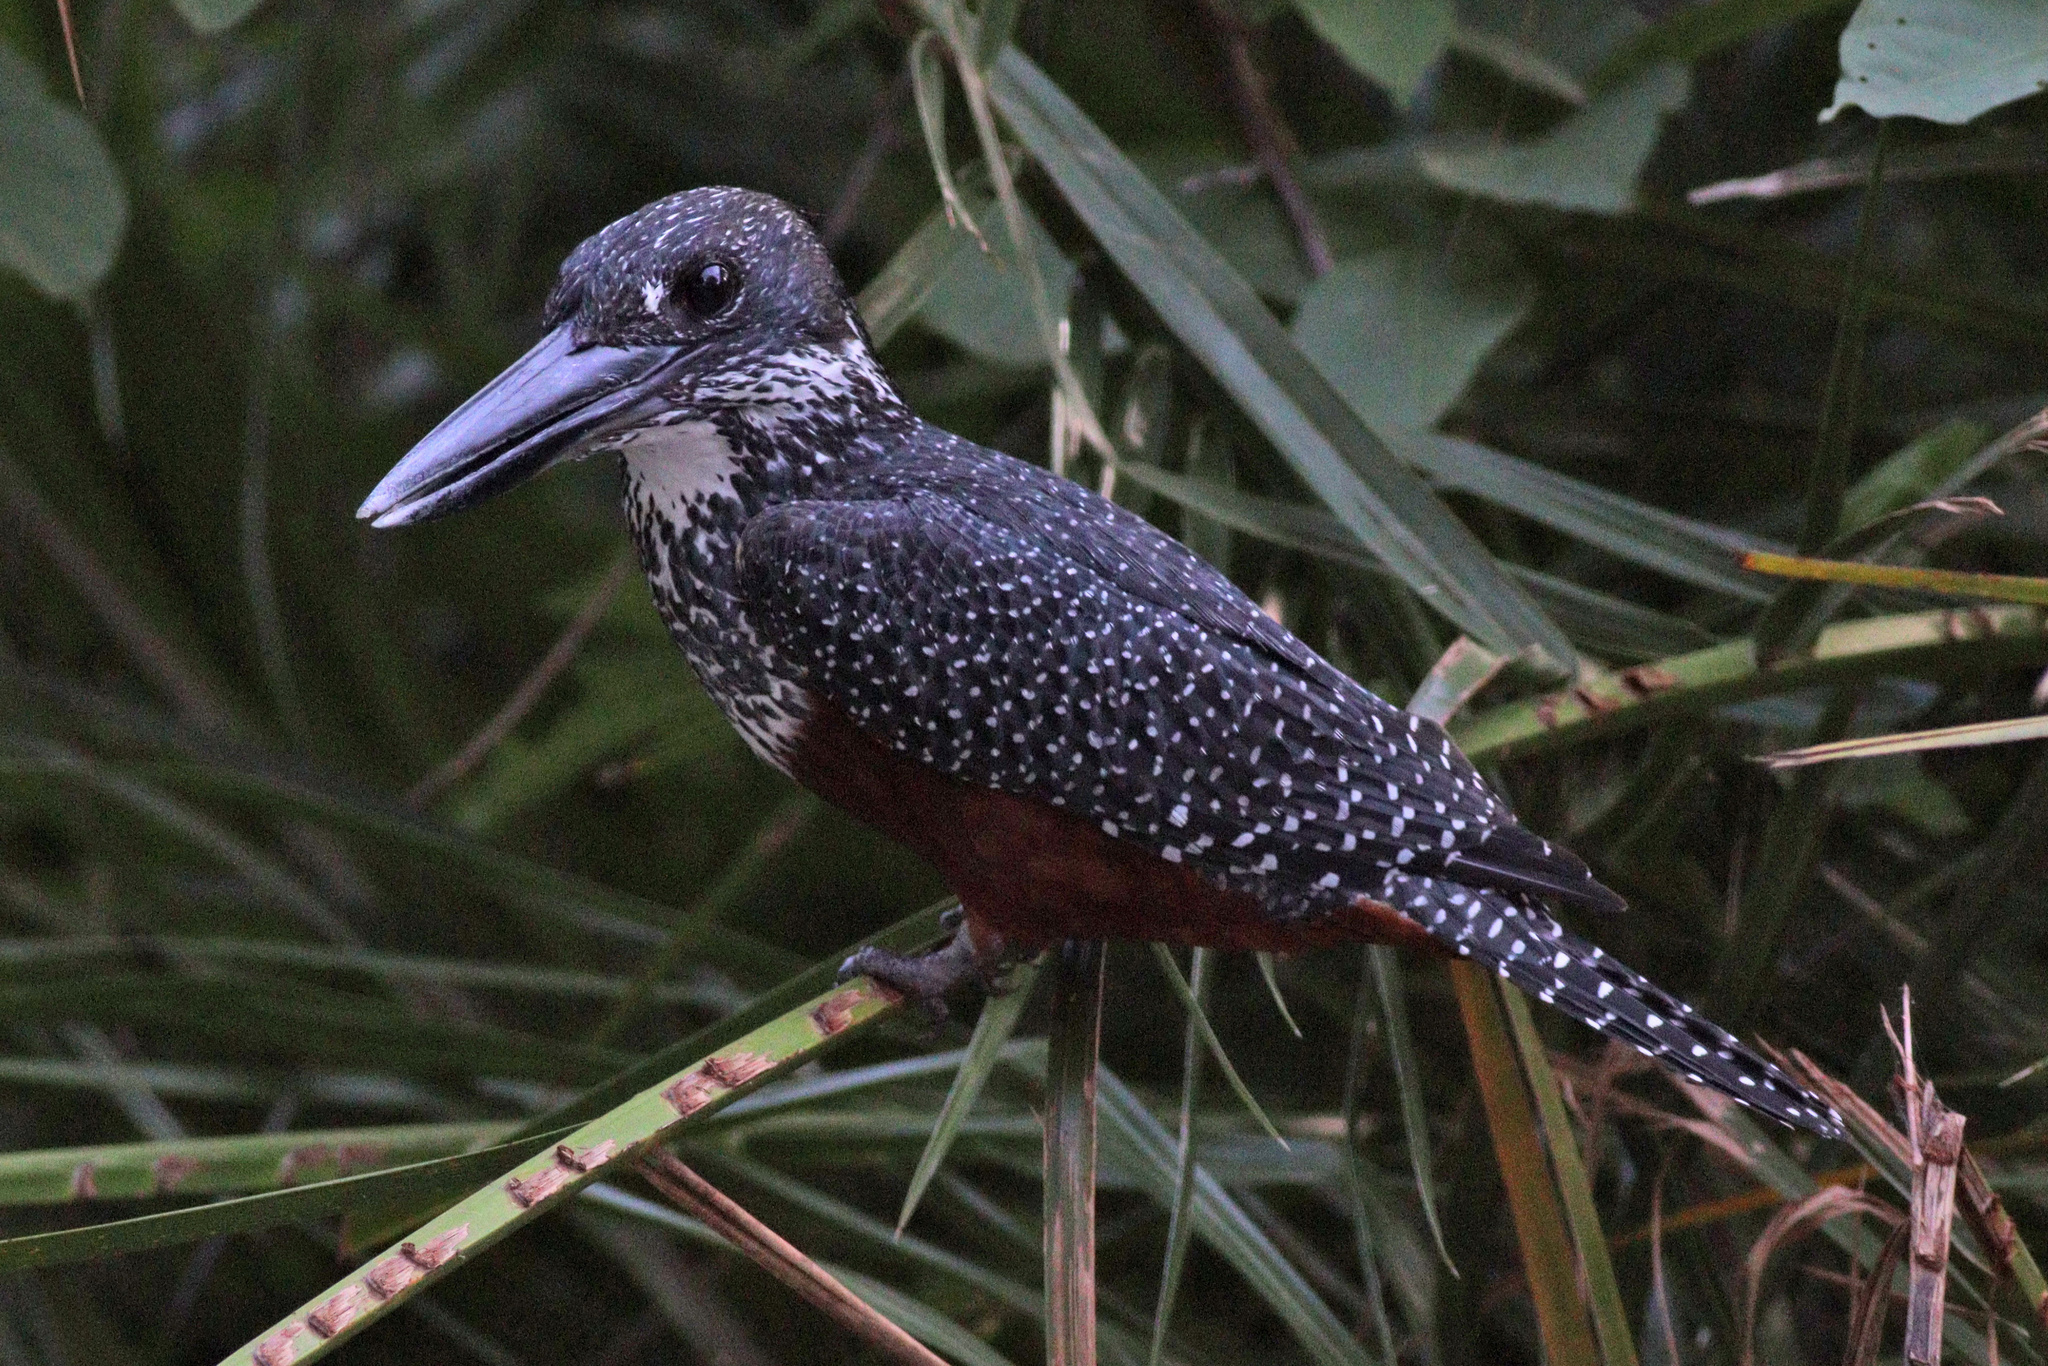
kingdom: Animalia
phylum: Chordata
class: Aves
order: Coraciiformes
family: Alcedinidae
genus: Megaceryle
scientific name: Megaceryle maxima
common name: Giant kingfisher
